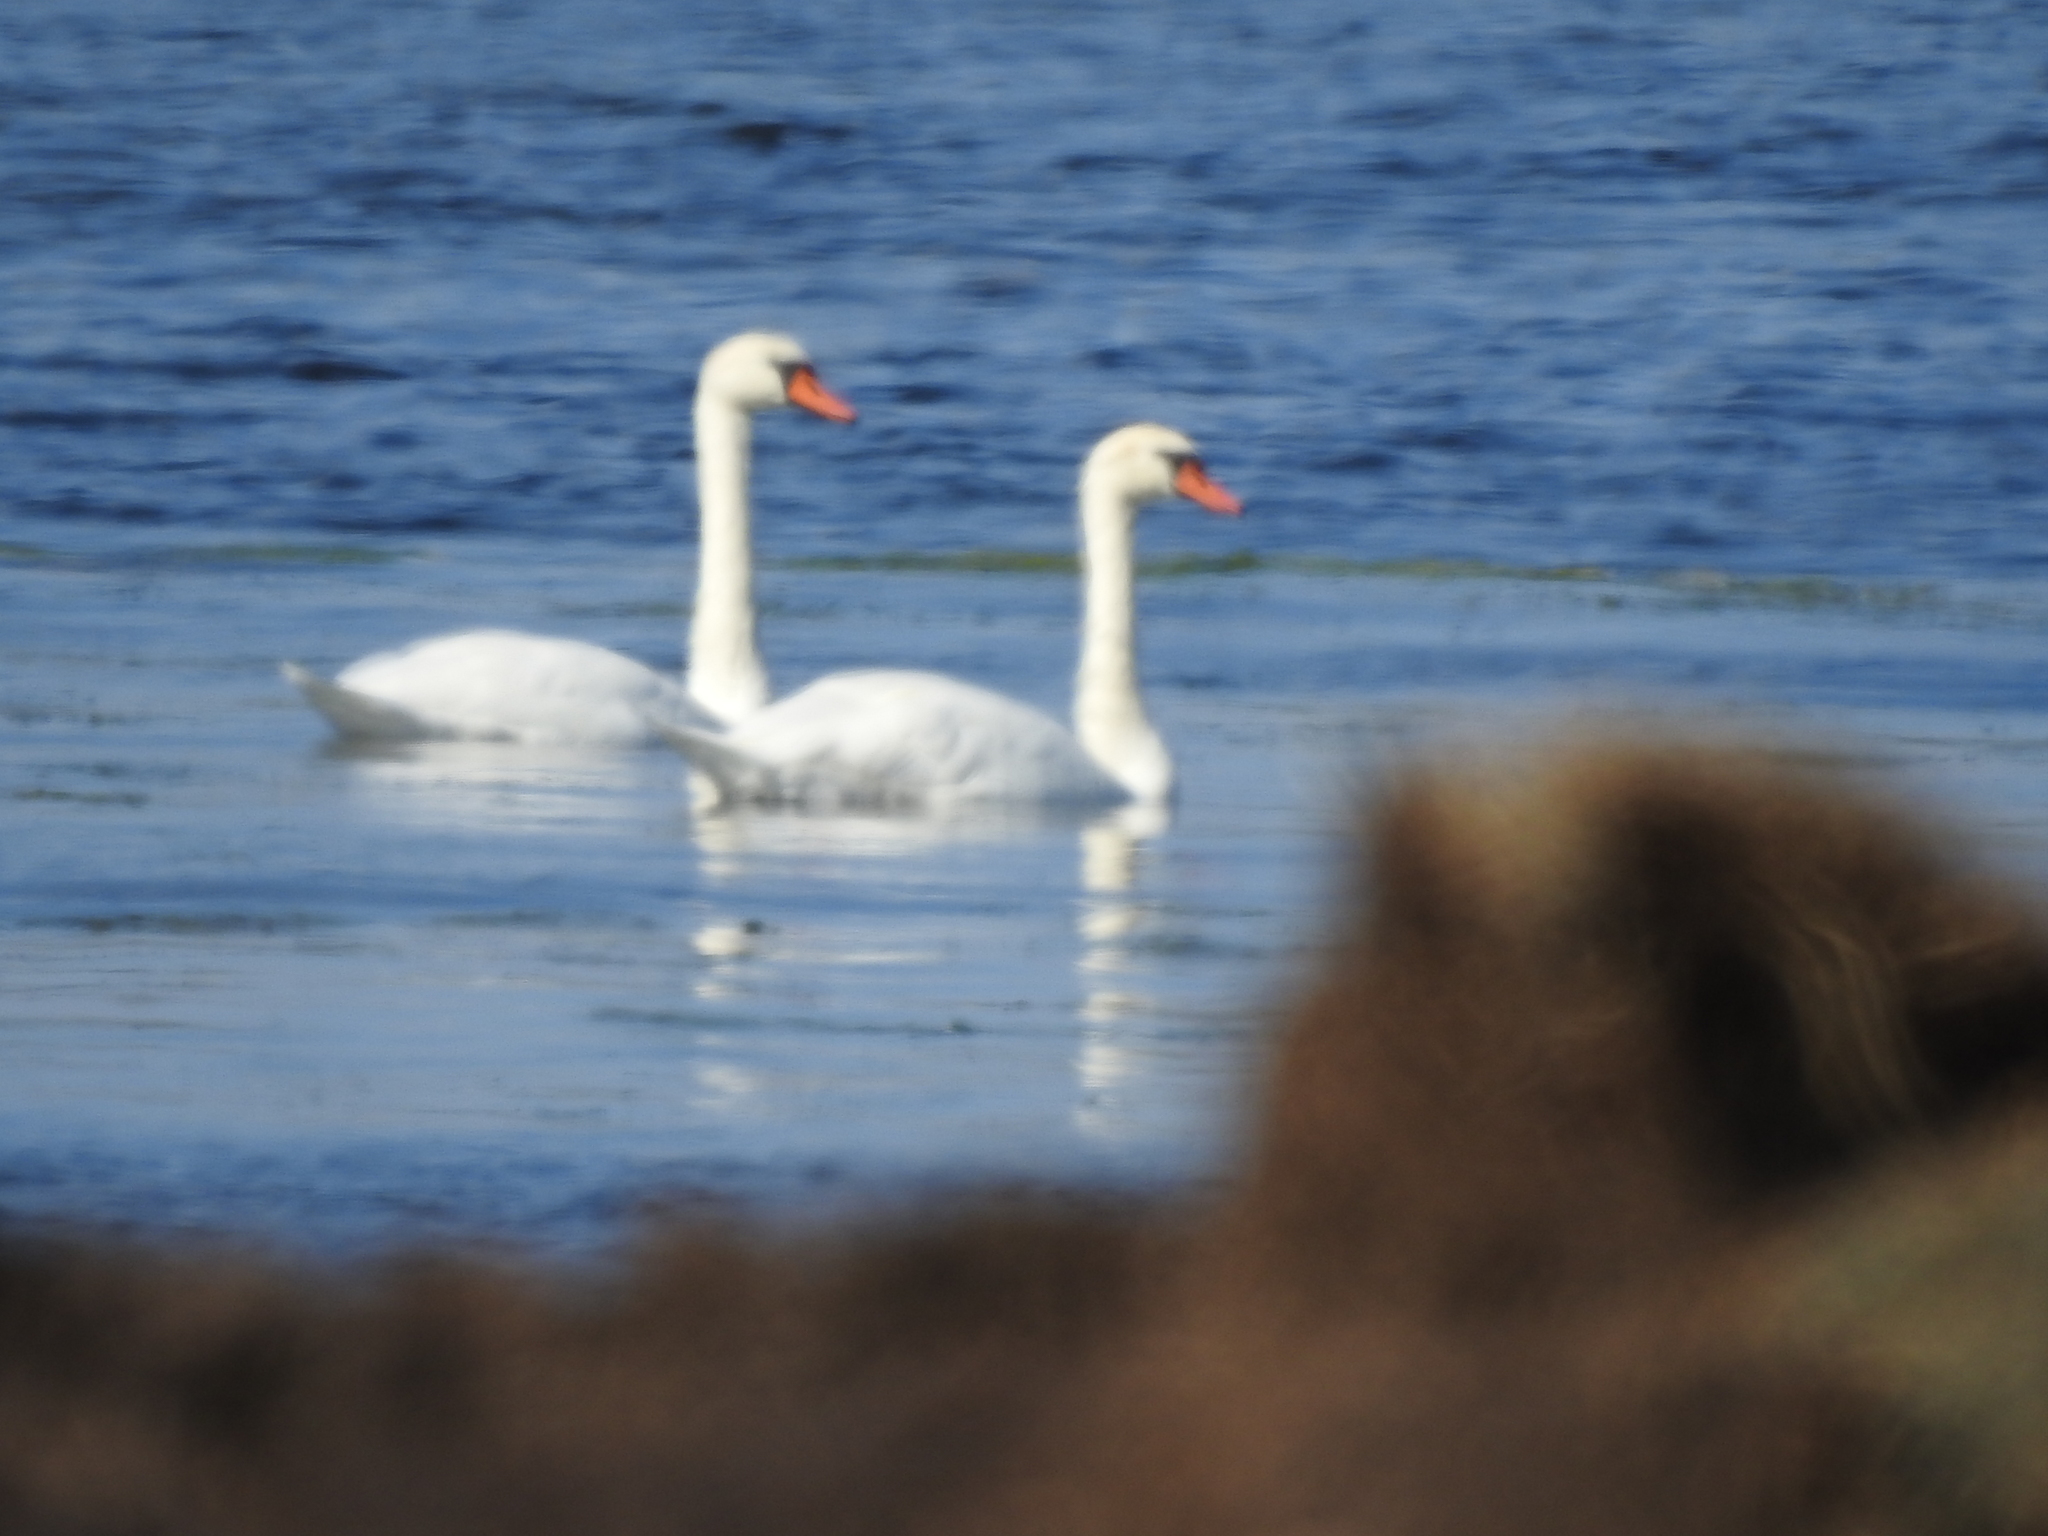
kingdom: Animalia
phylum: Chordata
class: Aves
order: Anseriformes
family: Anatidae
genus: Cygnus
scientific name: Cygnus olor
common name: Mute swan
